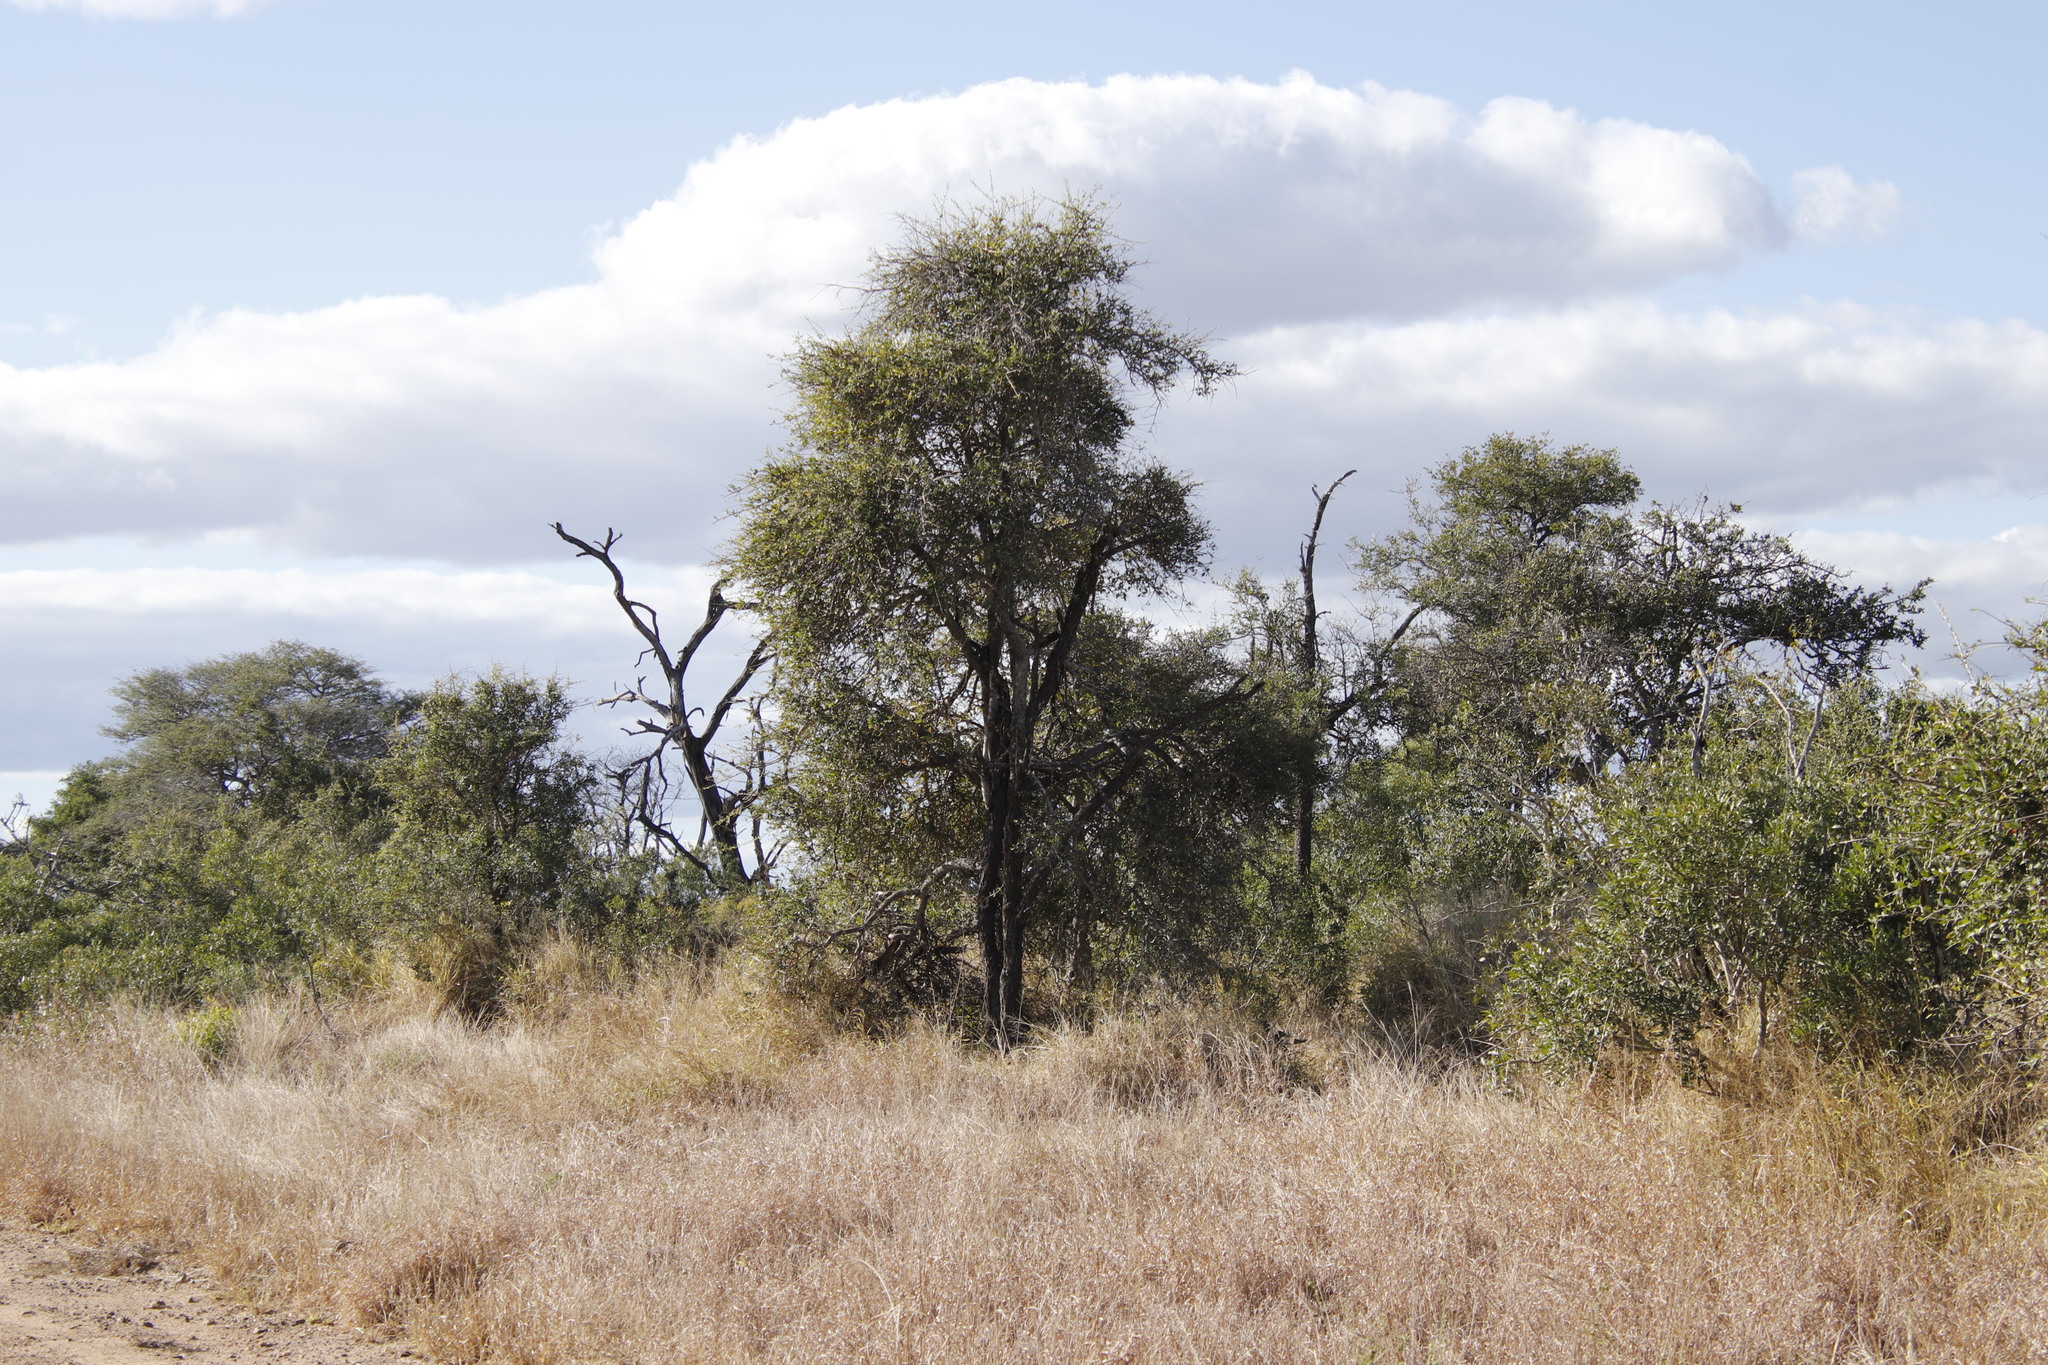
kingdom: Plantae
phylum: Tracheophyta
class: Magnoliopsida
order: Malpighiales
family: Euphorbiaceae
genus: Spirostachys
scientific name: Spirostachys africana
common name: Tamboti
